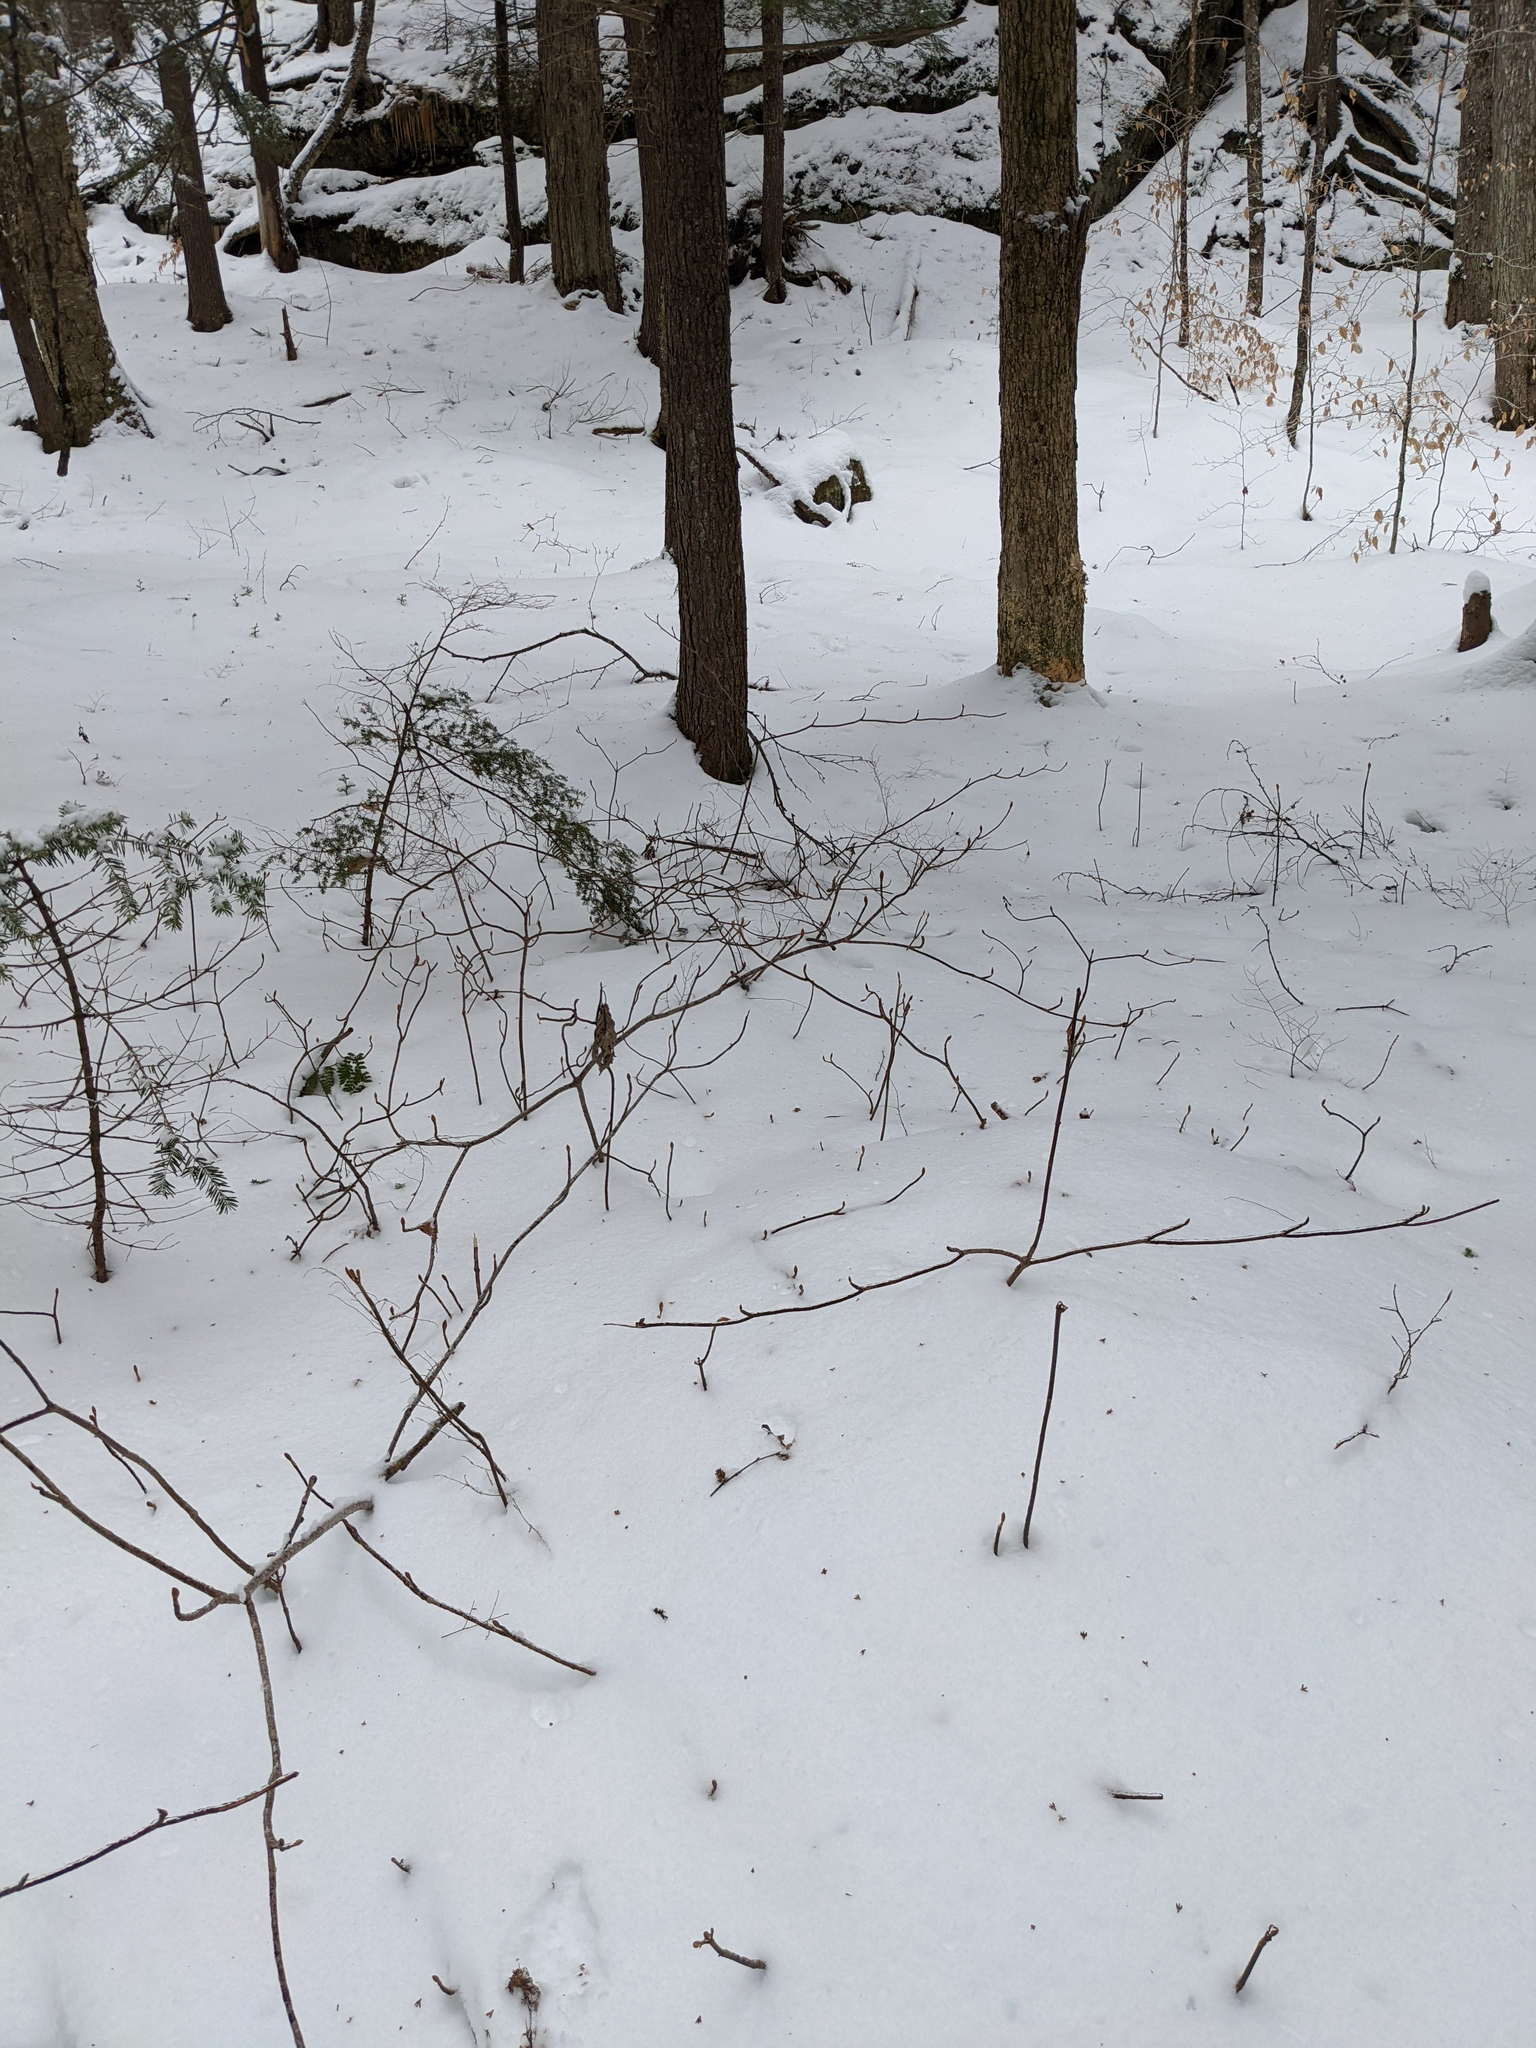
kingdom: Plantae
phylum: Tracheophyta
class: Magnoliopsida
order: Dipsacales
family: Viburnaceae
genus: Viburnum
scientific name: Viburnum lantanoides
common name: Hobblebush
